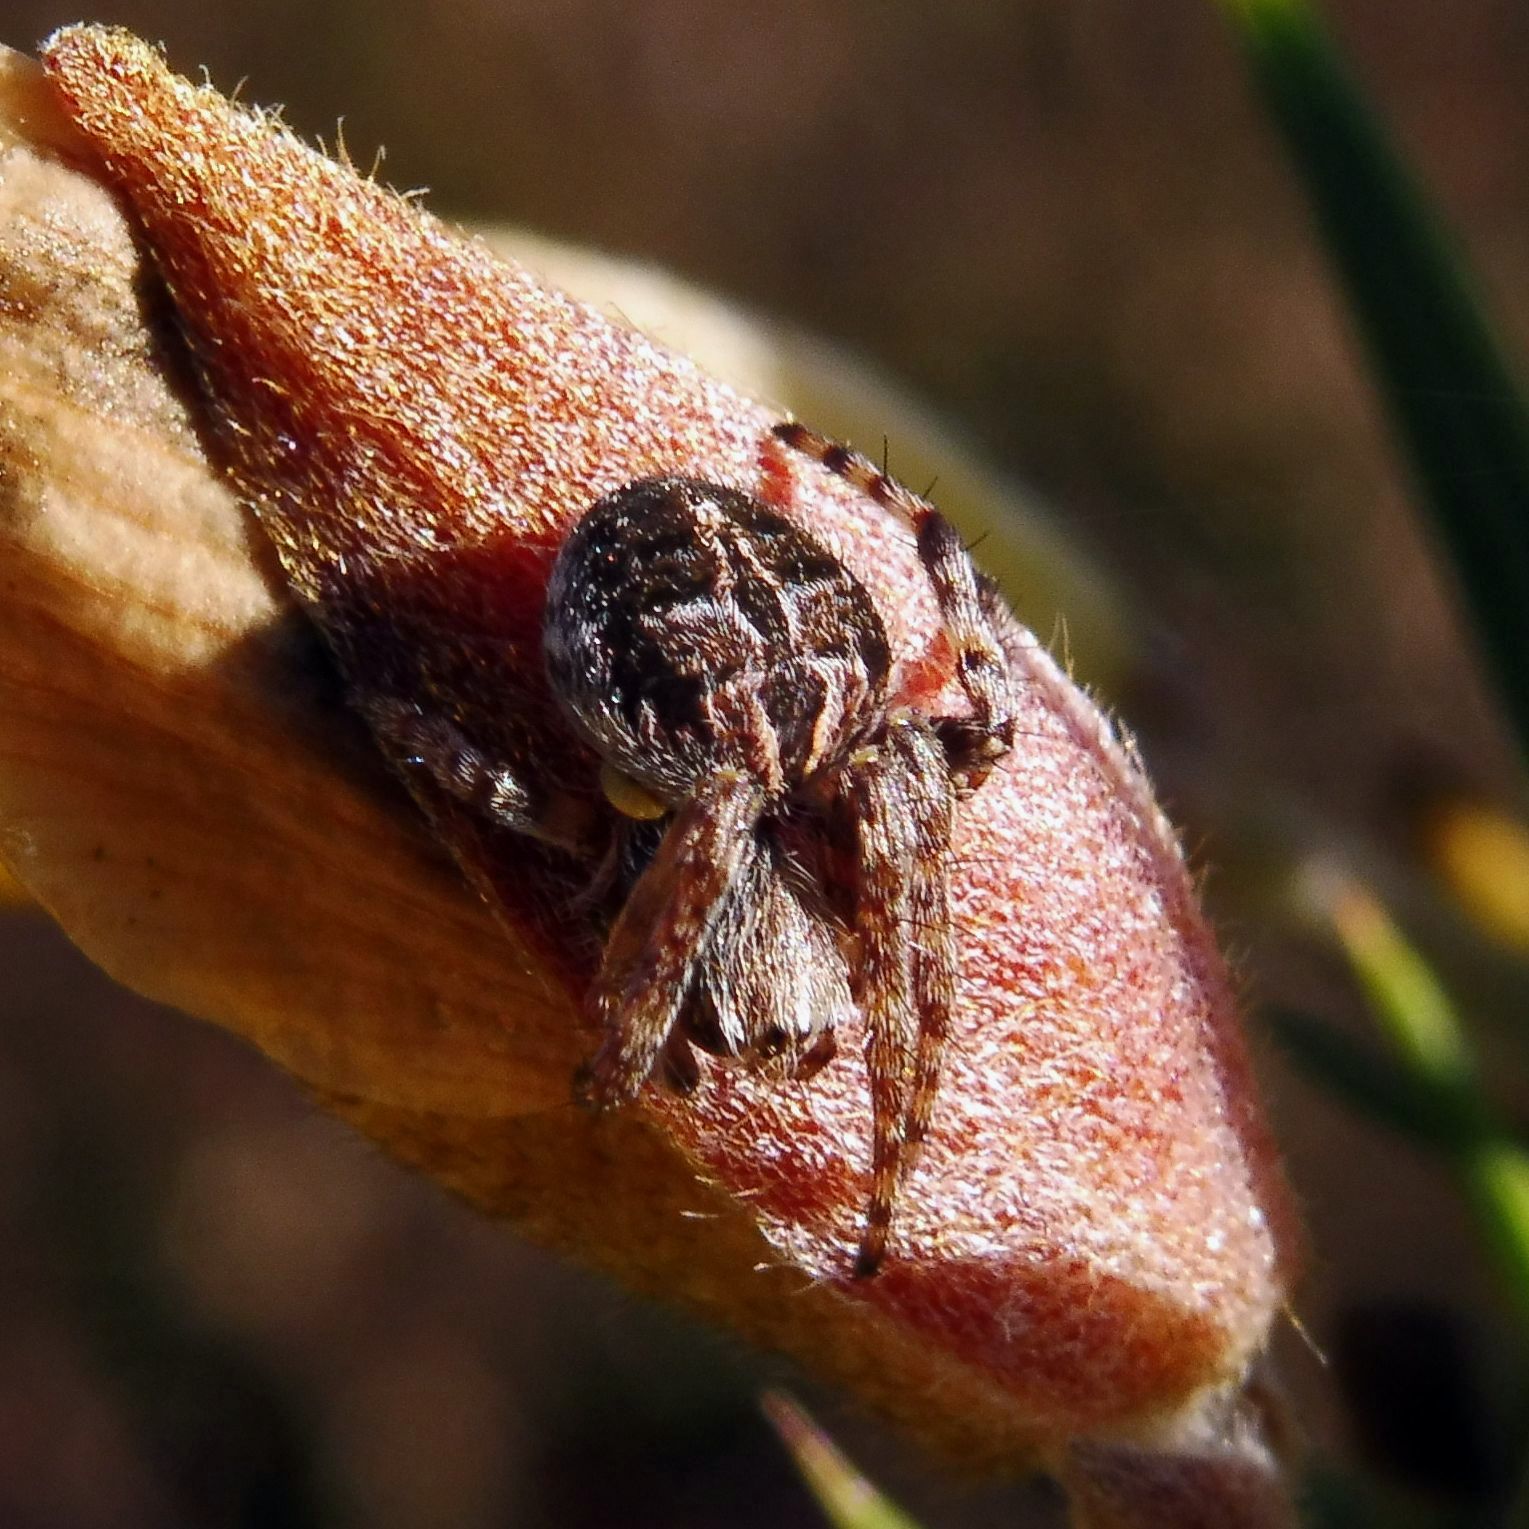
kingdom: Animalia
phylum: Arthropoda
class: Arachnida
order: Araneae
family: Araneidae
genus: Agalenatea
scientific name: Agalenatea redii
